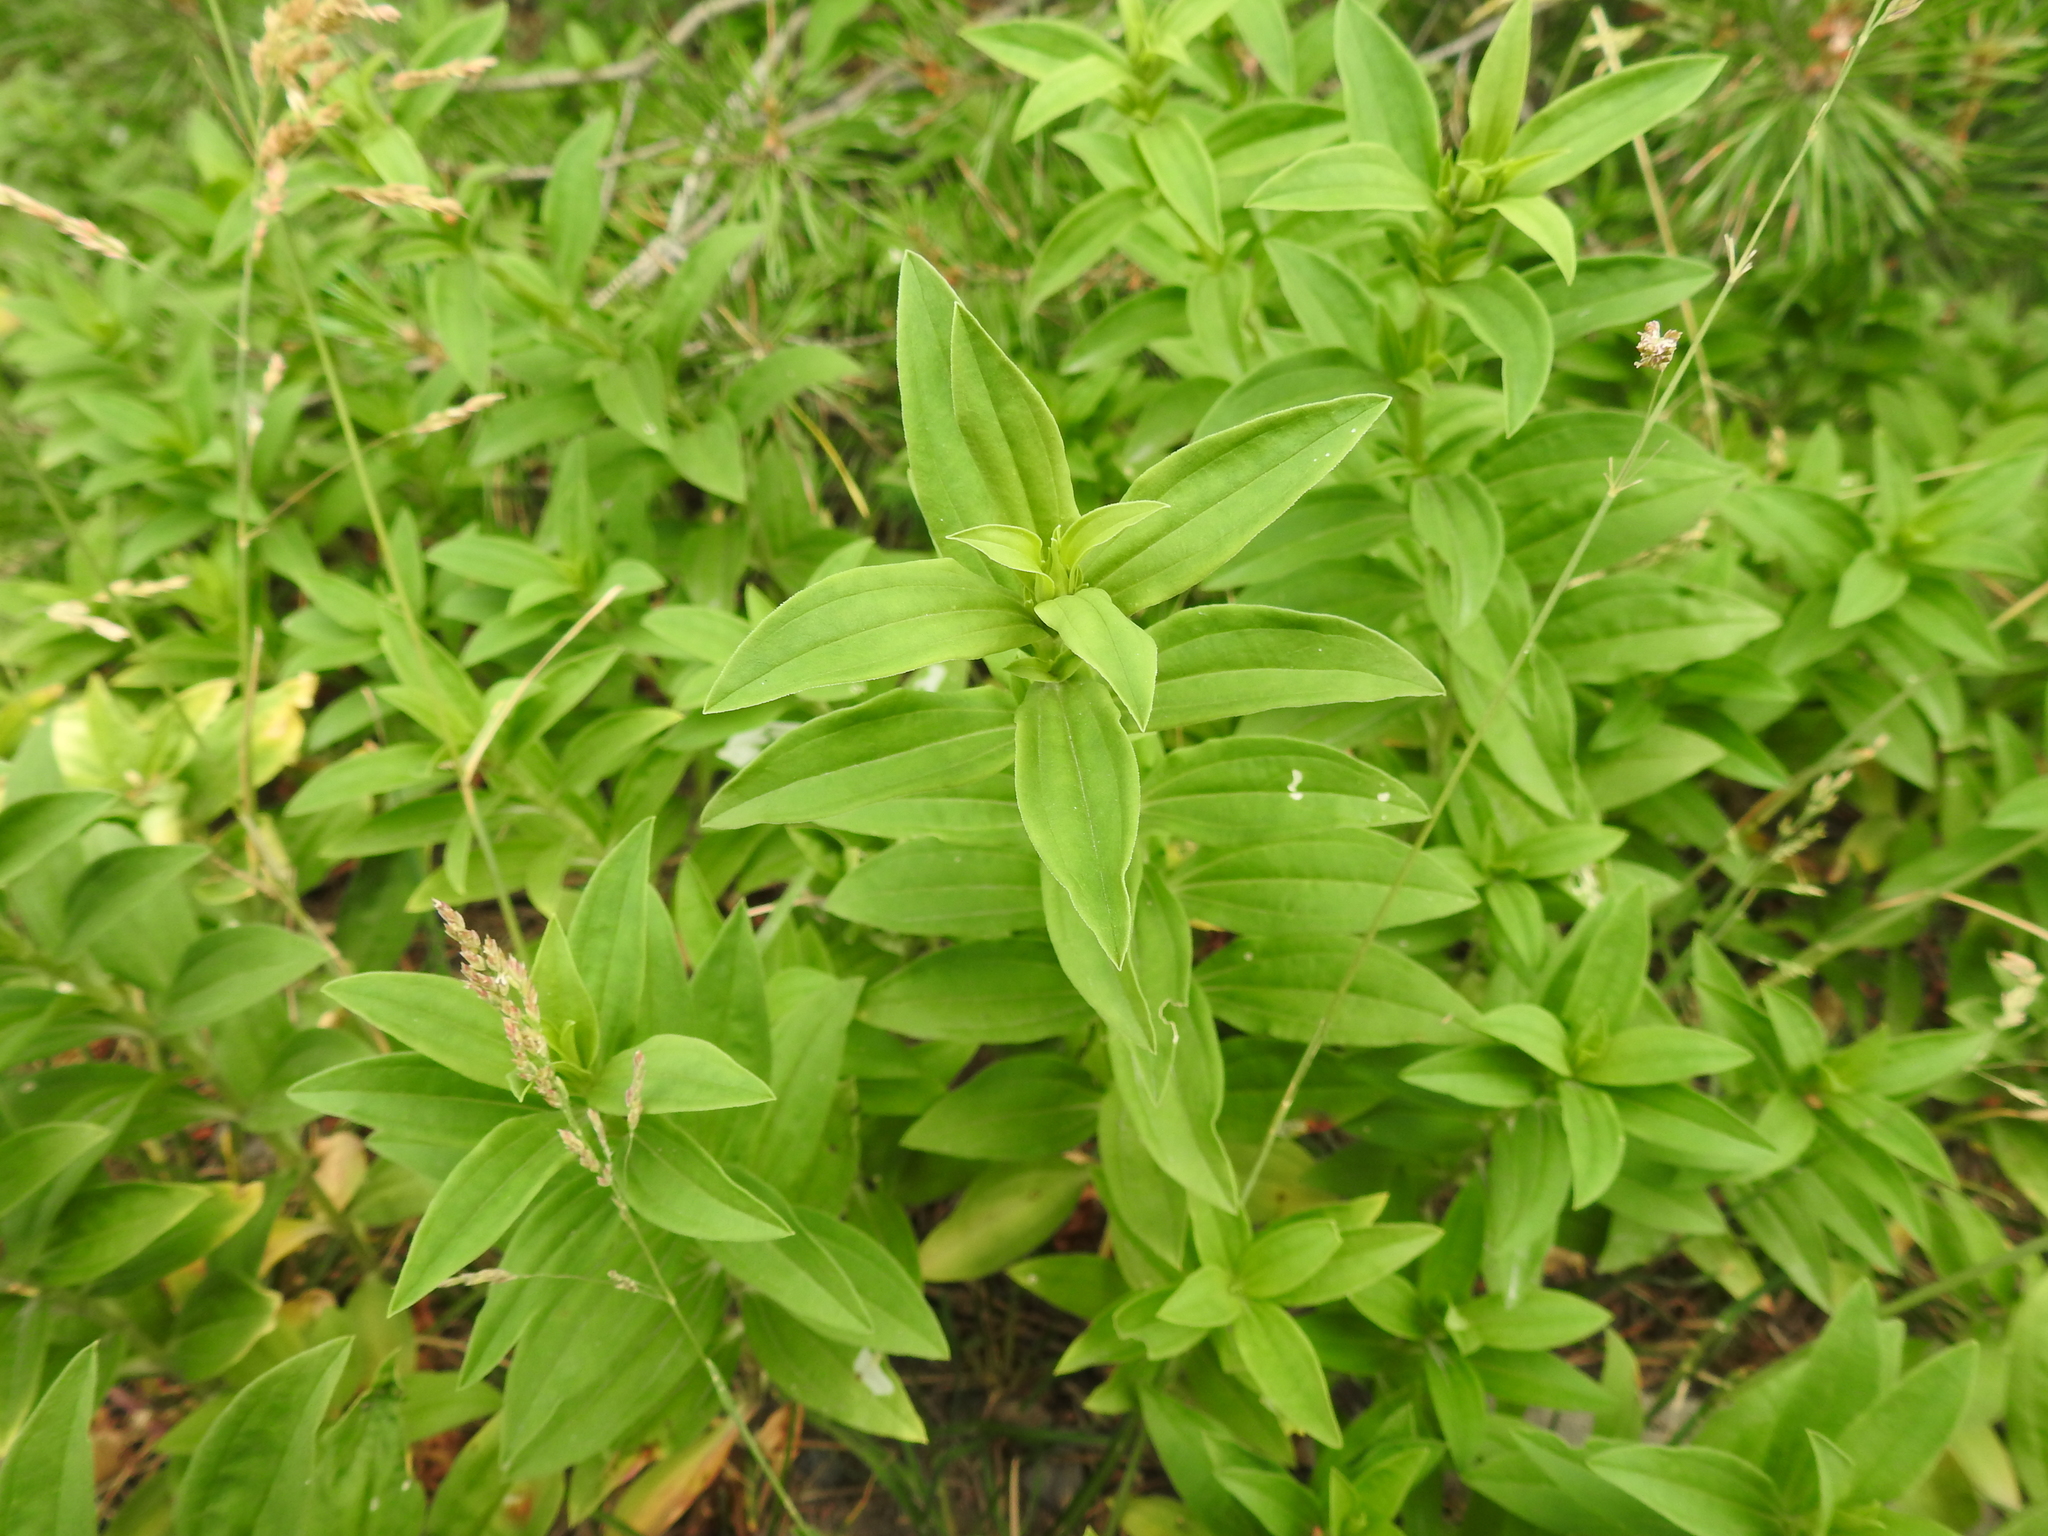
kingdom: Plantae
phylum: Tracheophyta
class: Magnoliopsida
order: Caryophyllales
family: Caryophyllaceae
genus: Saponaria
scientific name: Saponaria officinalis
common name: Soapwort
